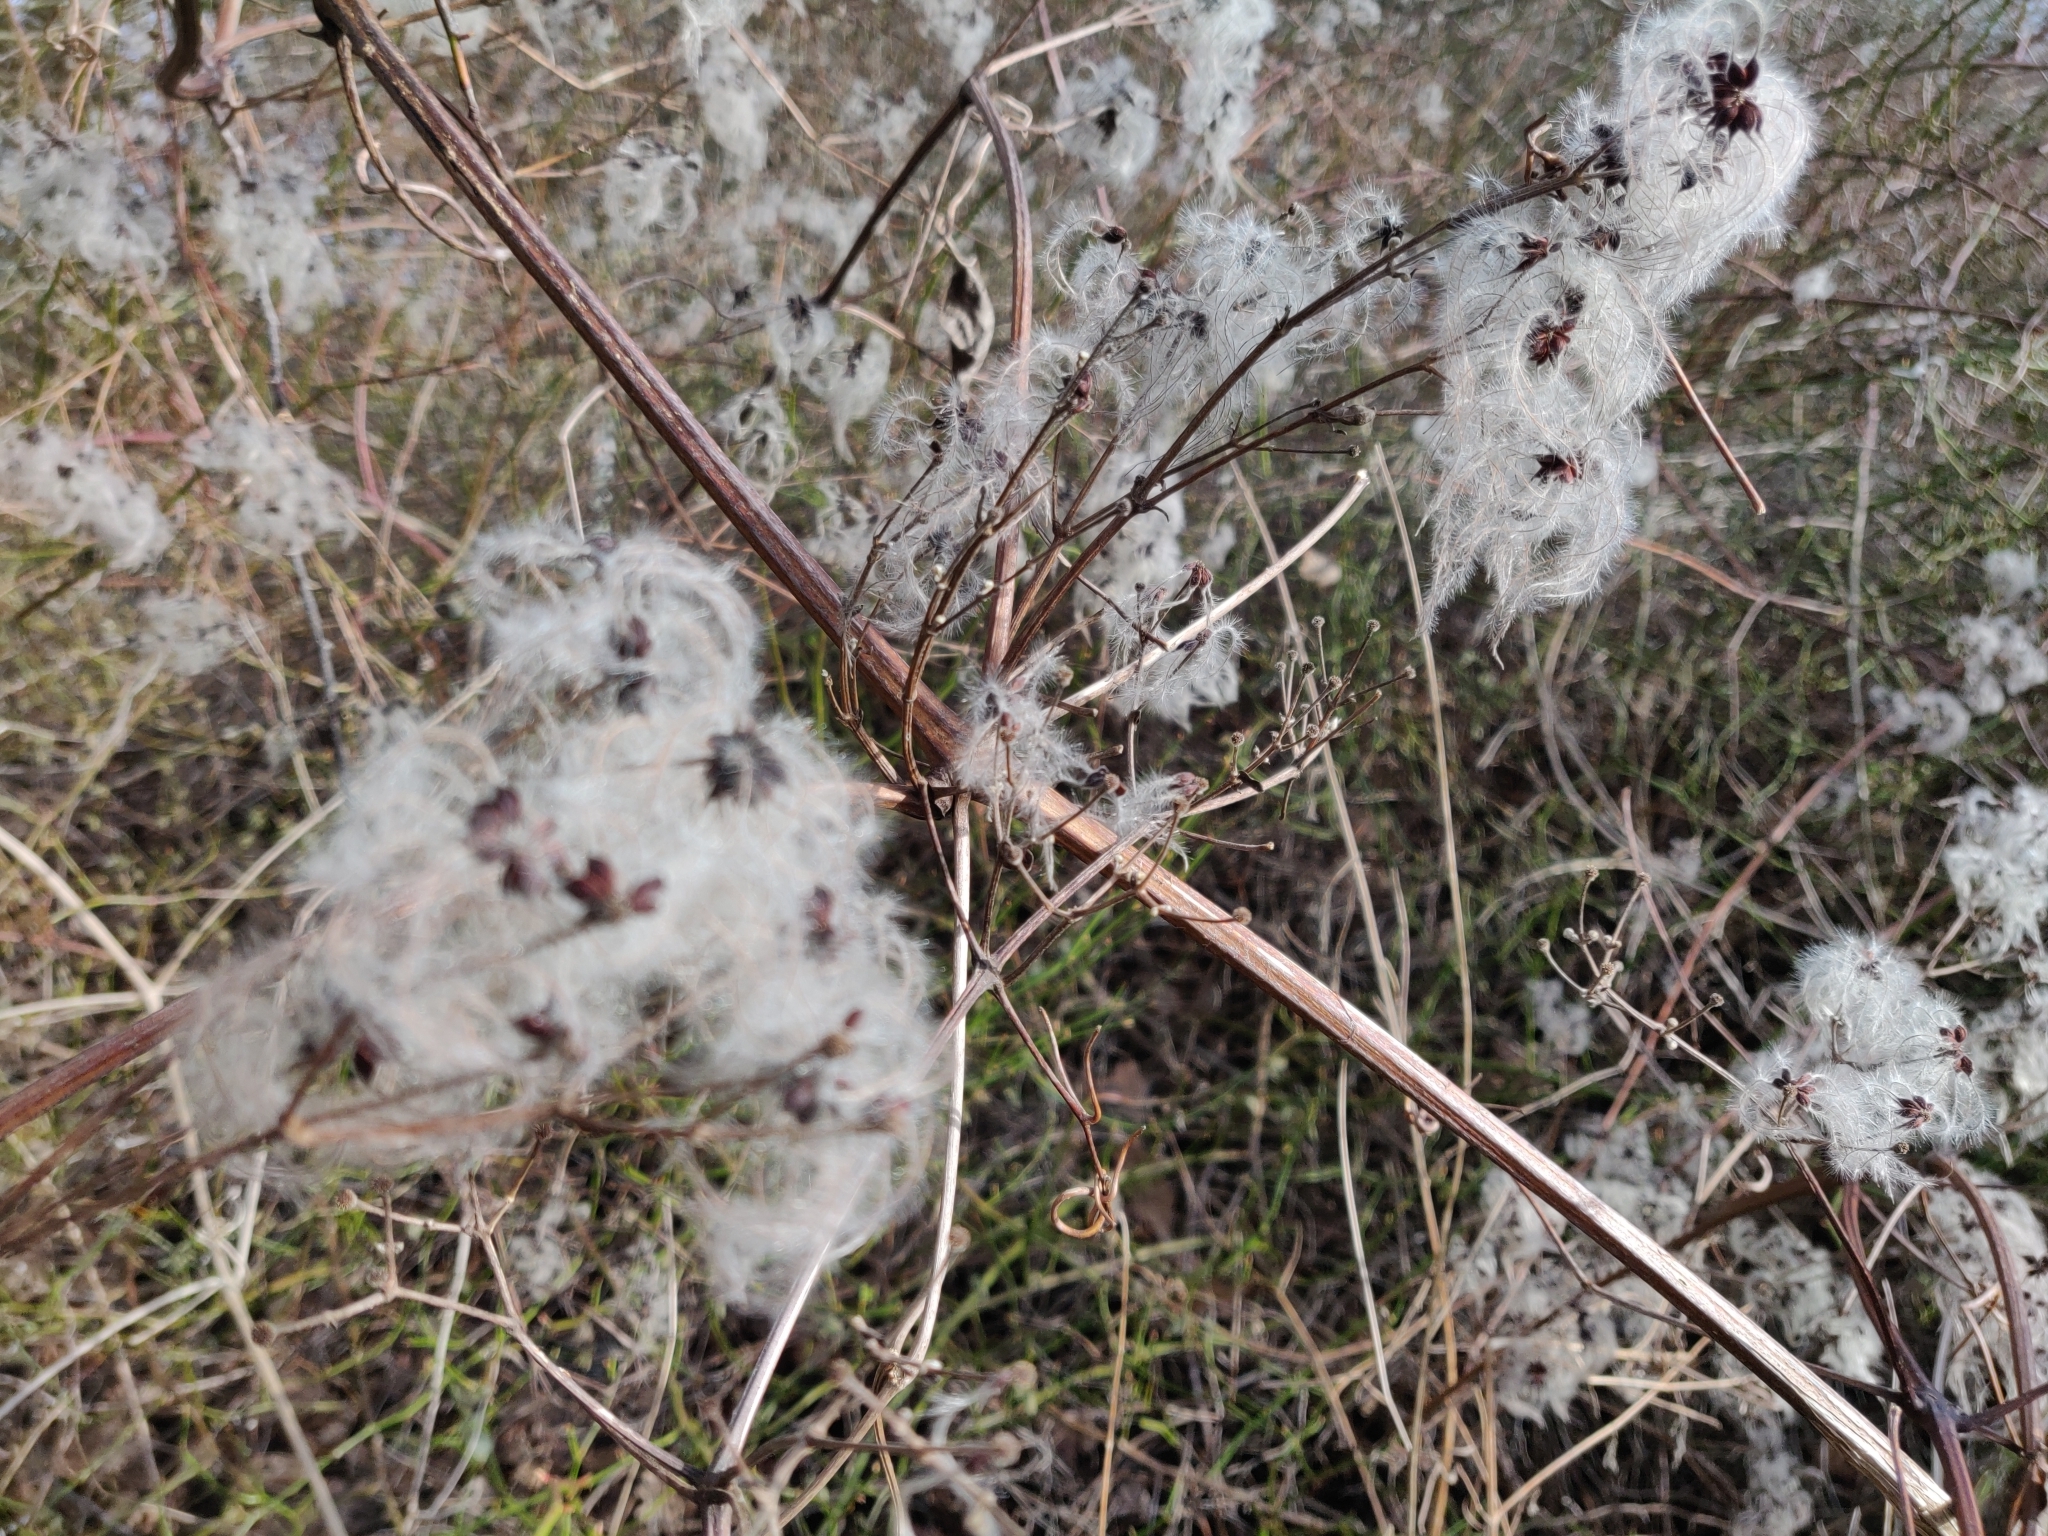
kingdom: Plantae
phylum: Tracheophyta
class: Magnoliopsida
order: Ranunculales
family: Ranunculaceae
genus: Clematis
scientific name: Clematis vitalba
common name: Evergreen clematis
